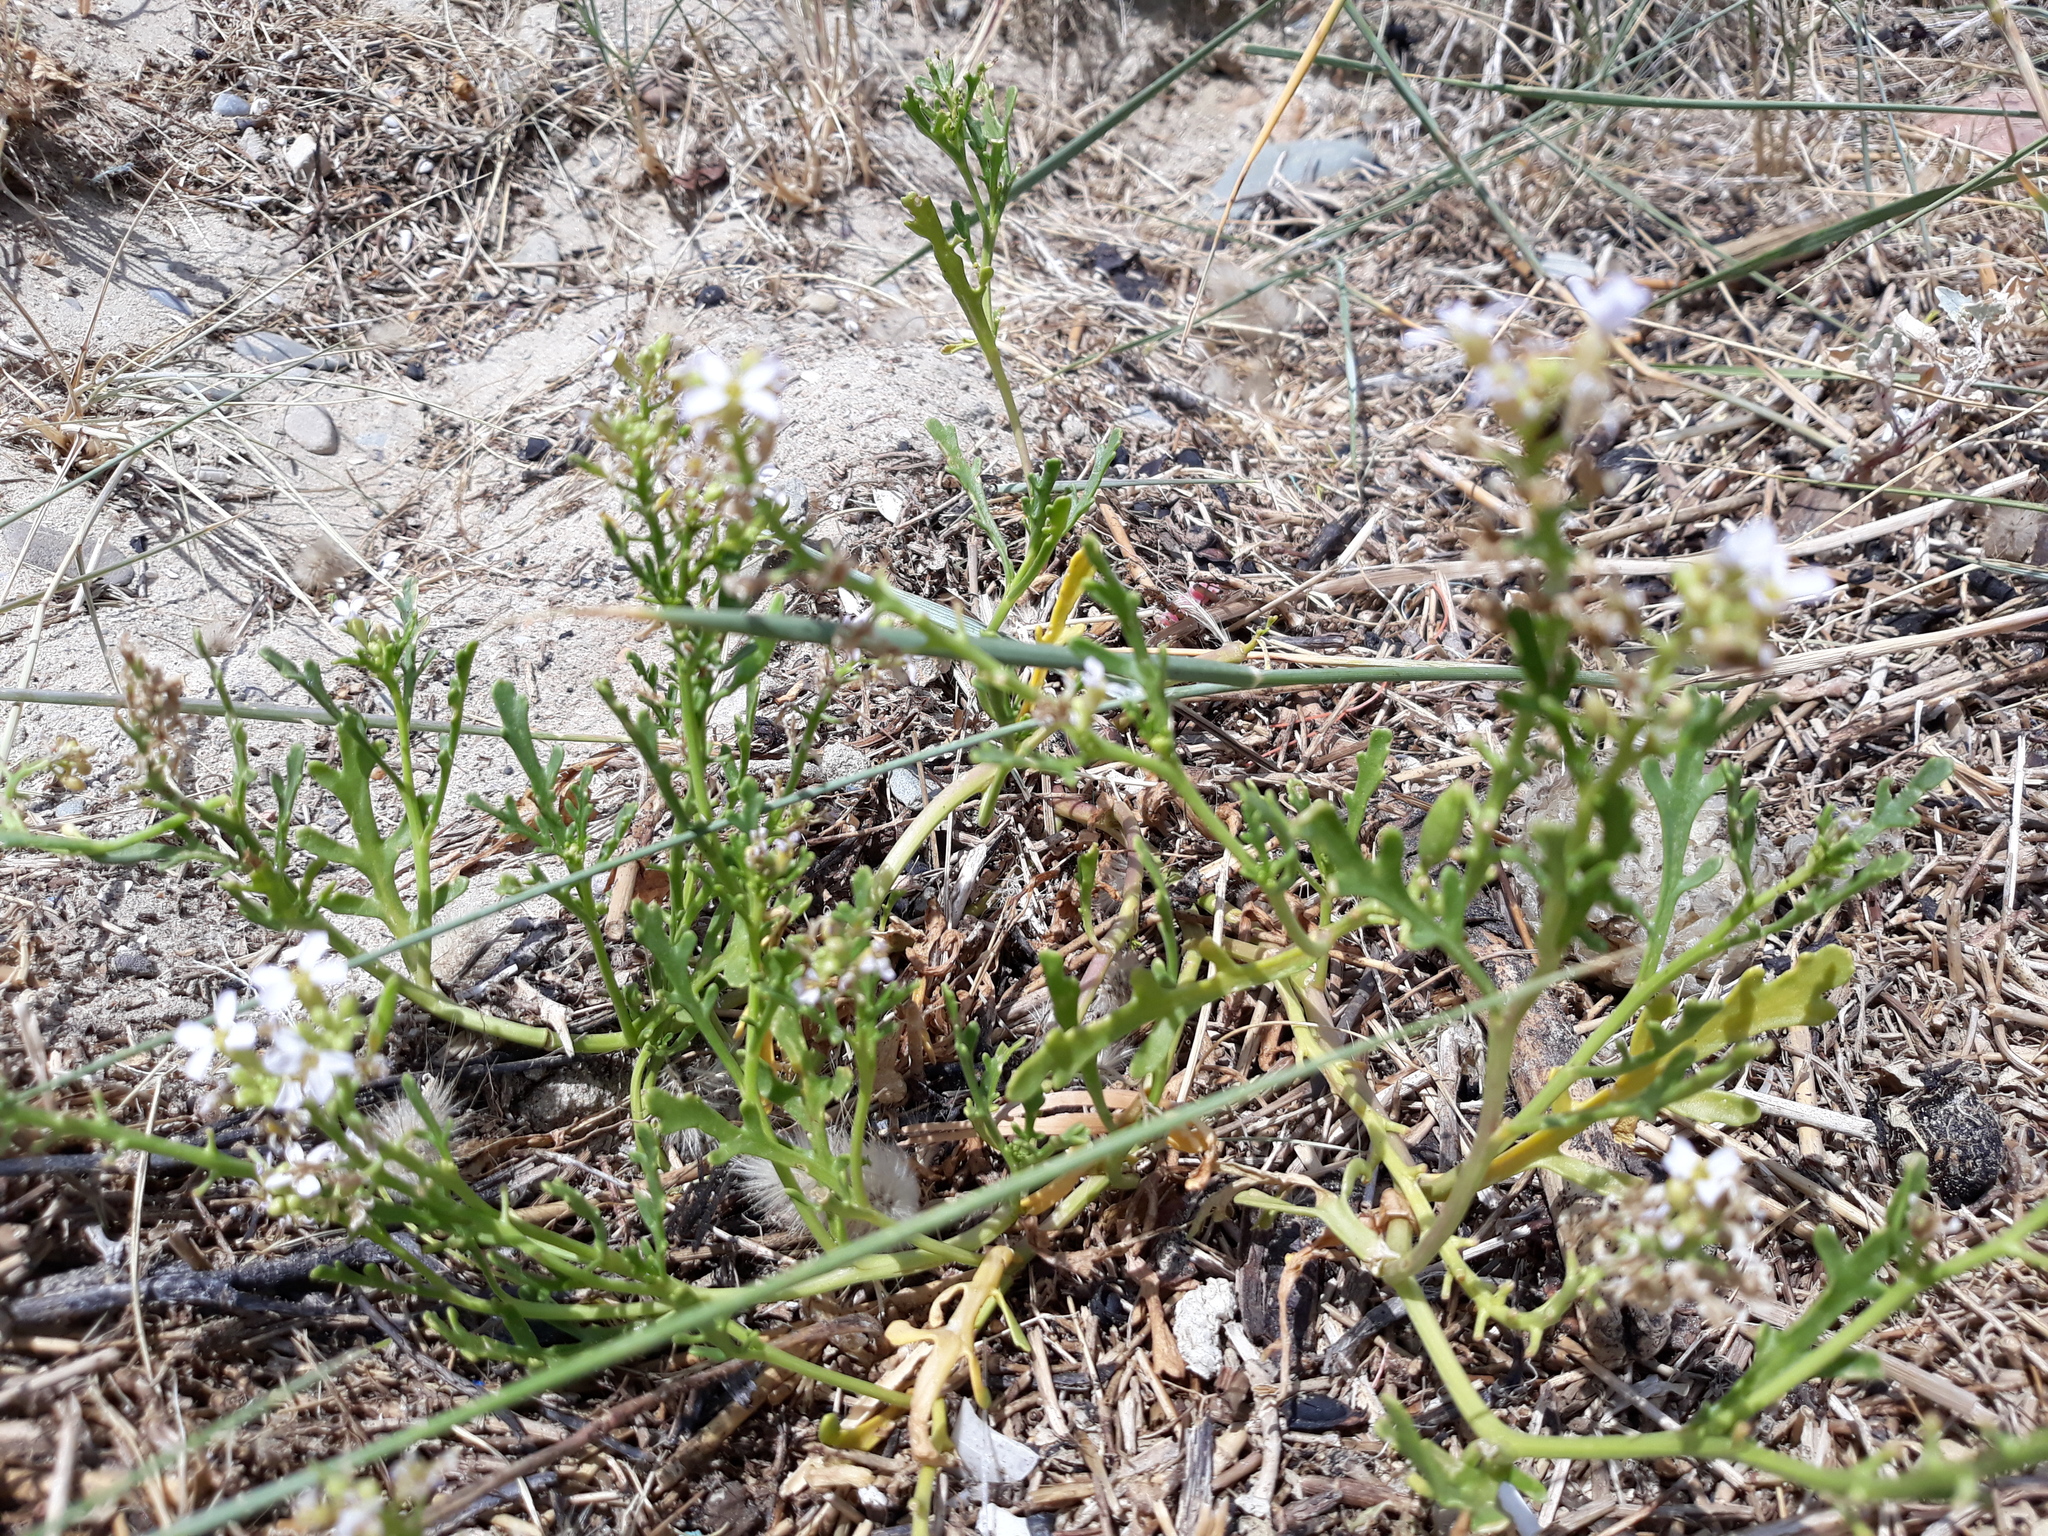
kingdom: Plantae
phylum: Tracheophyta
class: Magnoliopsida
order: Brassicales
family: Brassicaceae
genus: Cakile
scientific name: Cakile maritima
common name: Sea rocket
